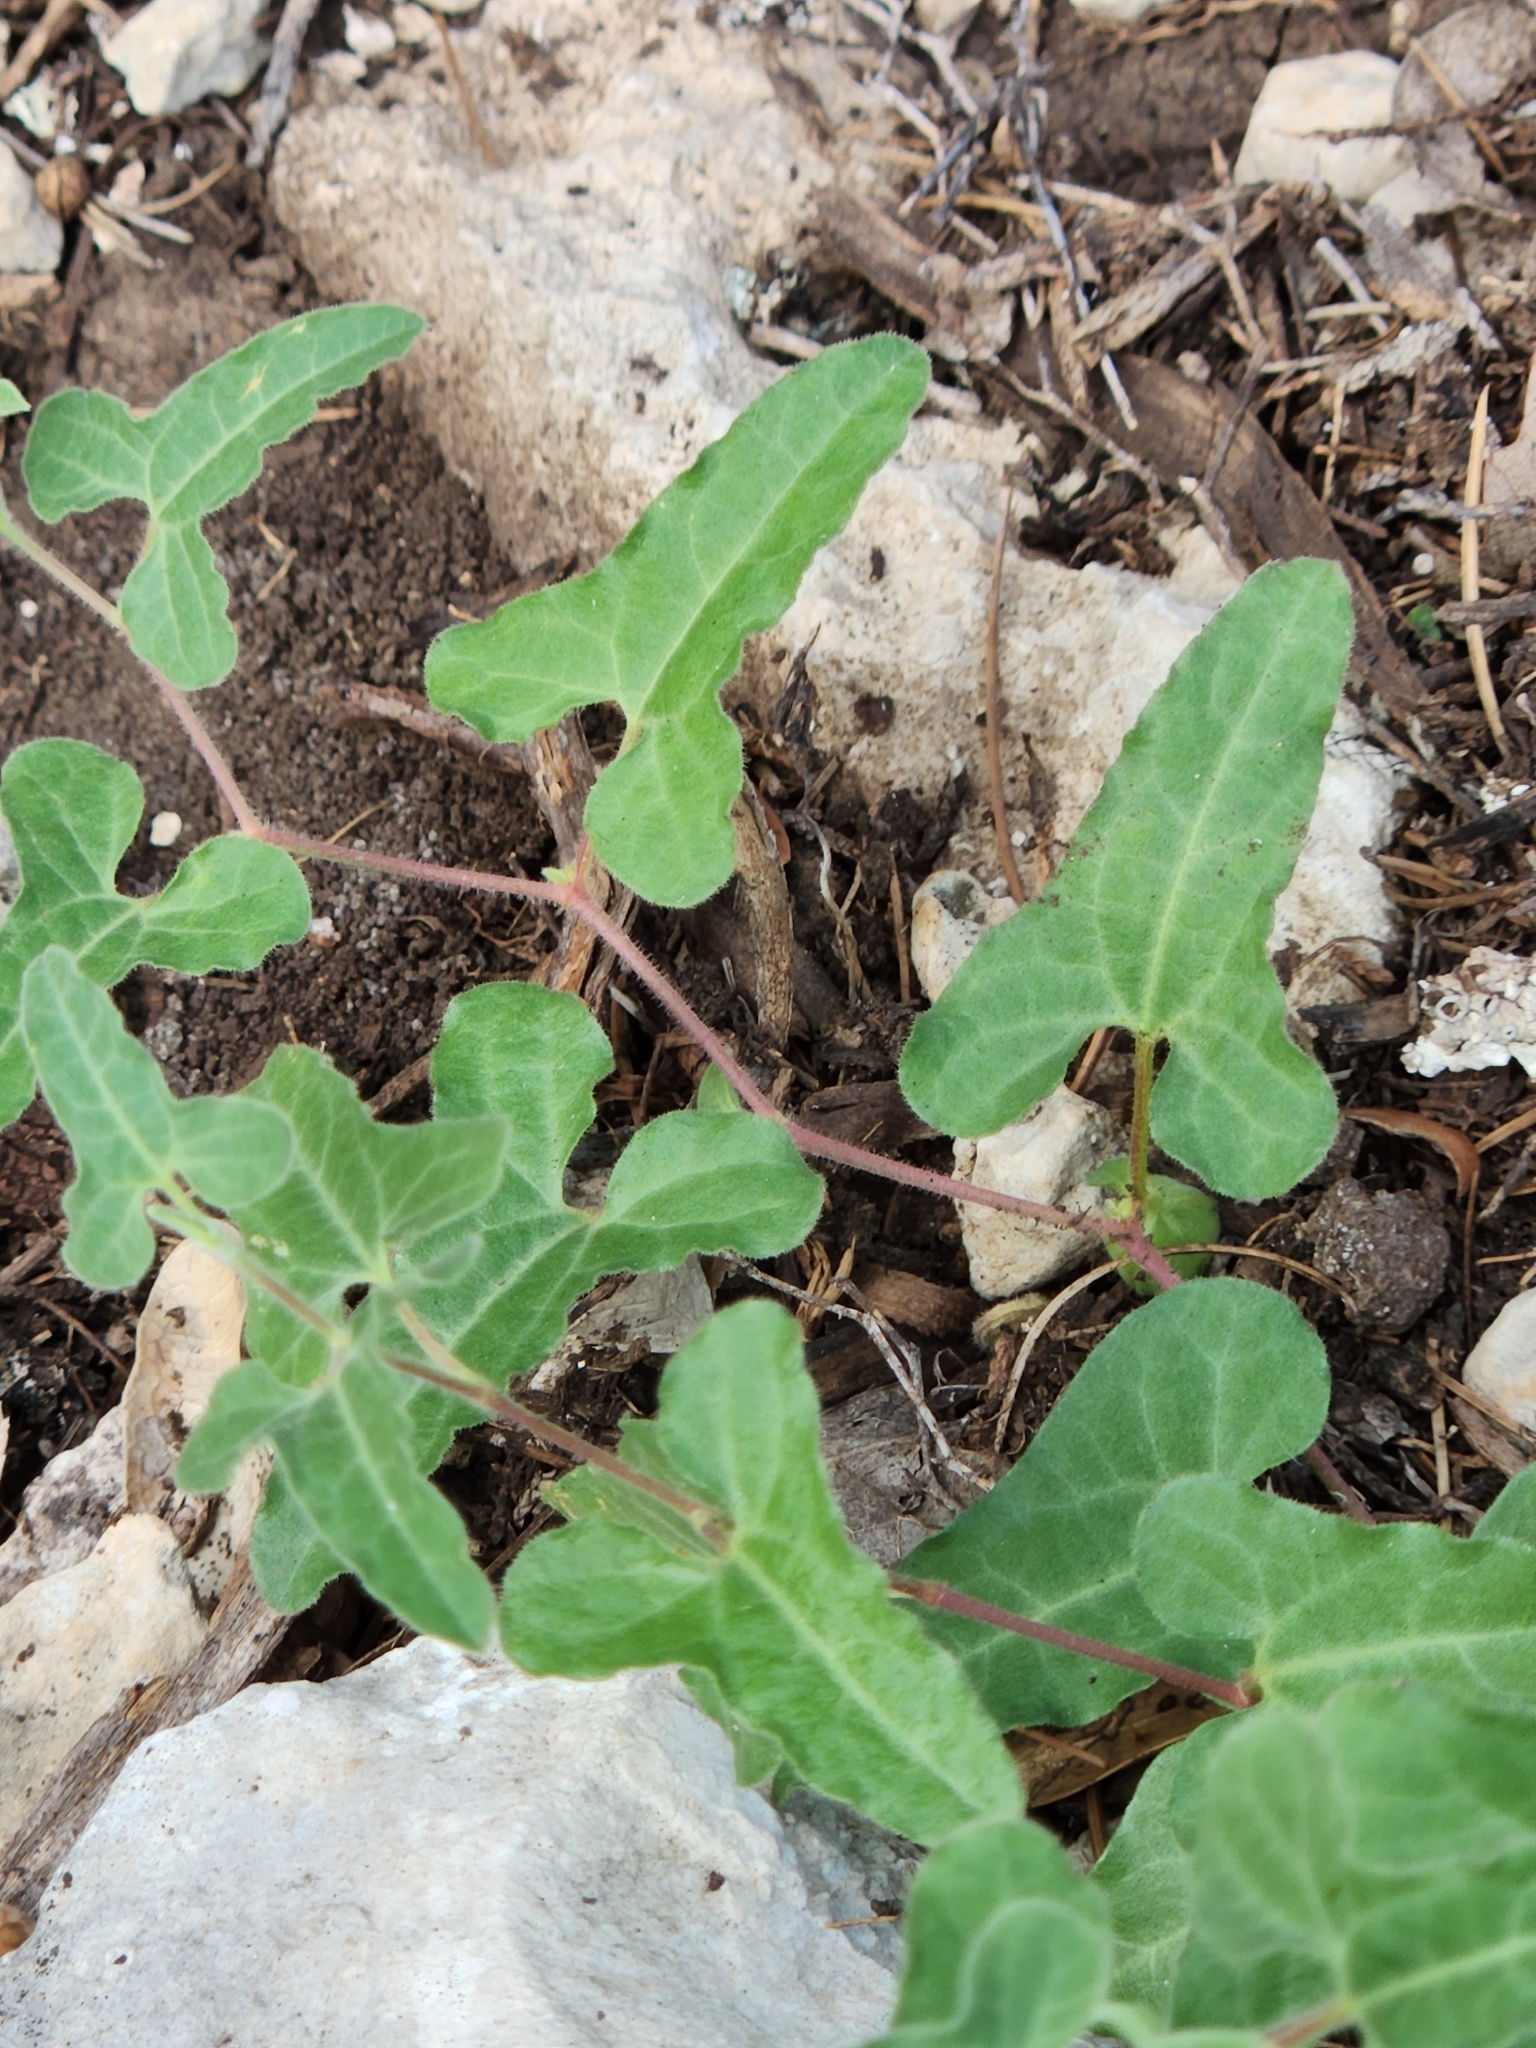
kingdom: Plantae
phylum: Tracheophyta
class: Magnoliopsida
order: Piperales
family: Aristolochiaceae
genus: Aristolochia
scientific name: Aristolochia coryi
